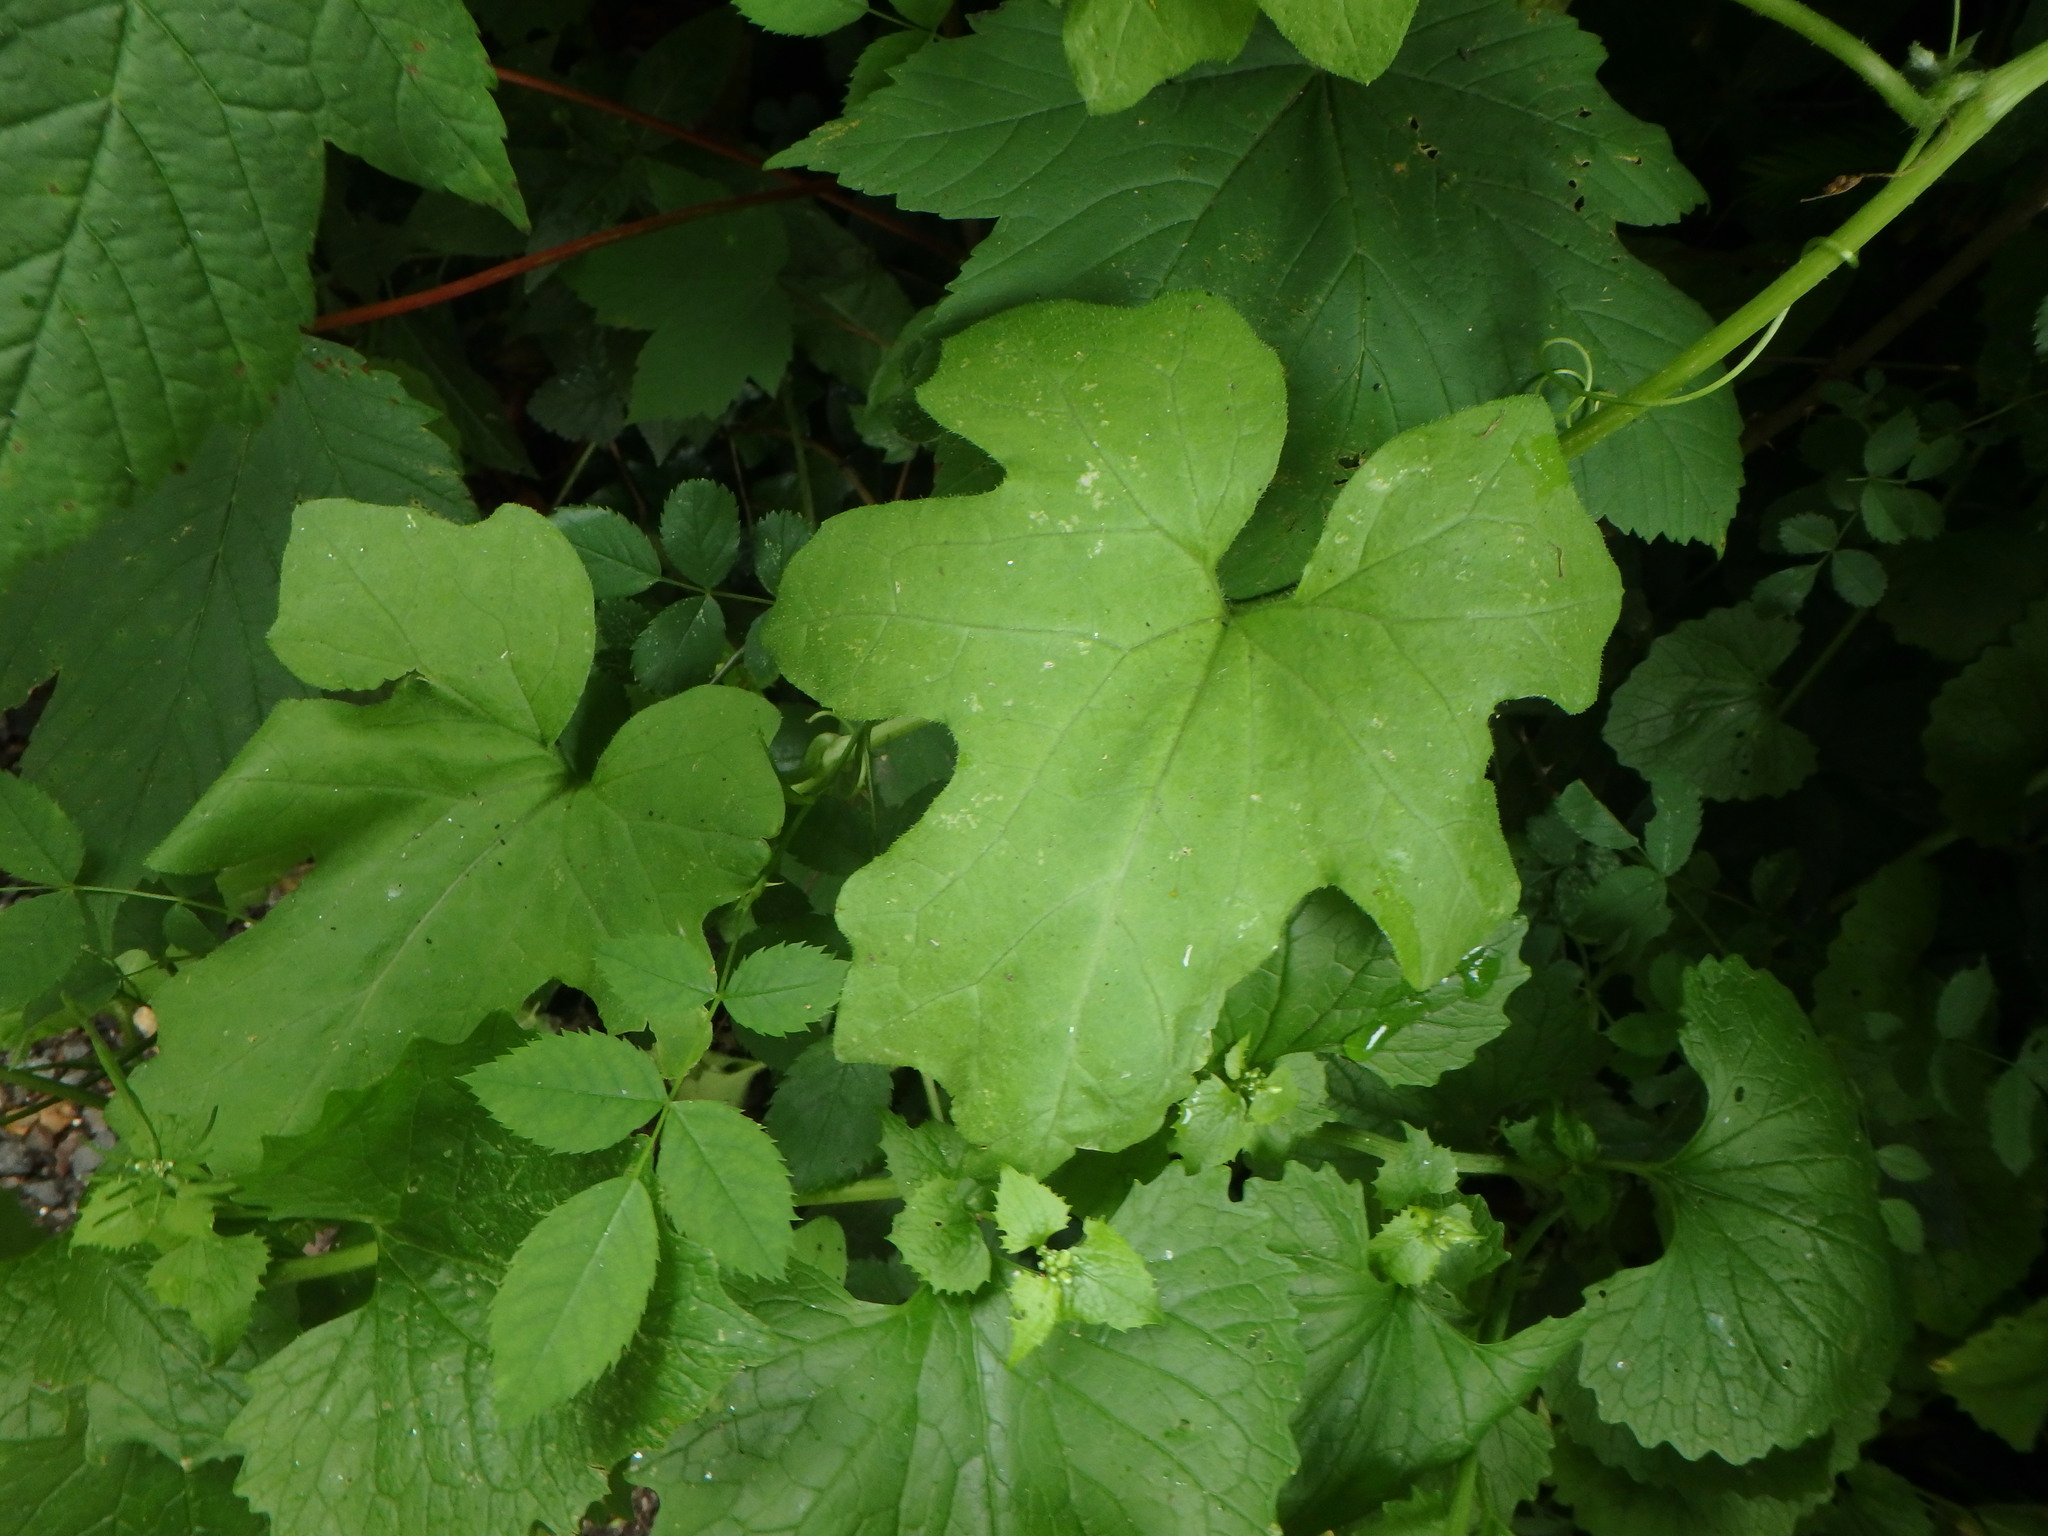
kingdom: Plantae
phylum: Tracheophyta
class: Magnoliopsida
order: Cucurbitales
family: Cucurbitaceae
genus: Bryonia
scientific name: Bryonia cretica
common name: Cretan bryony
